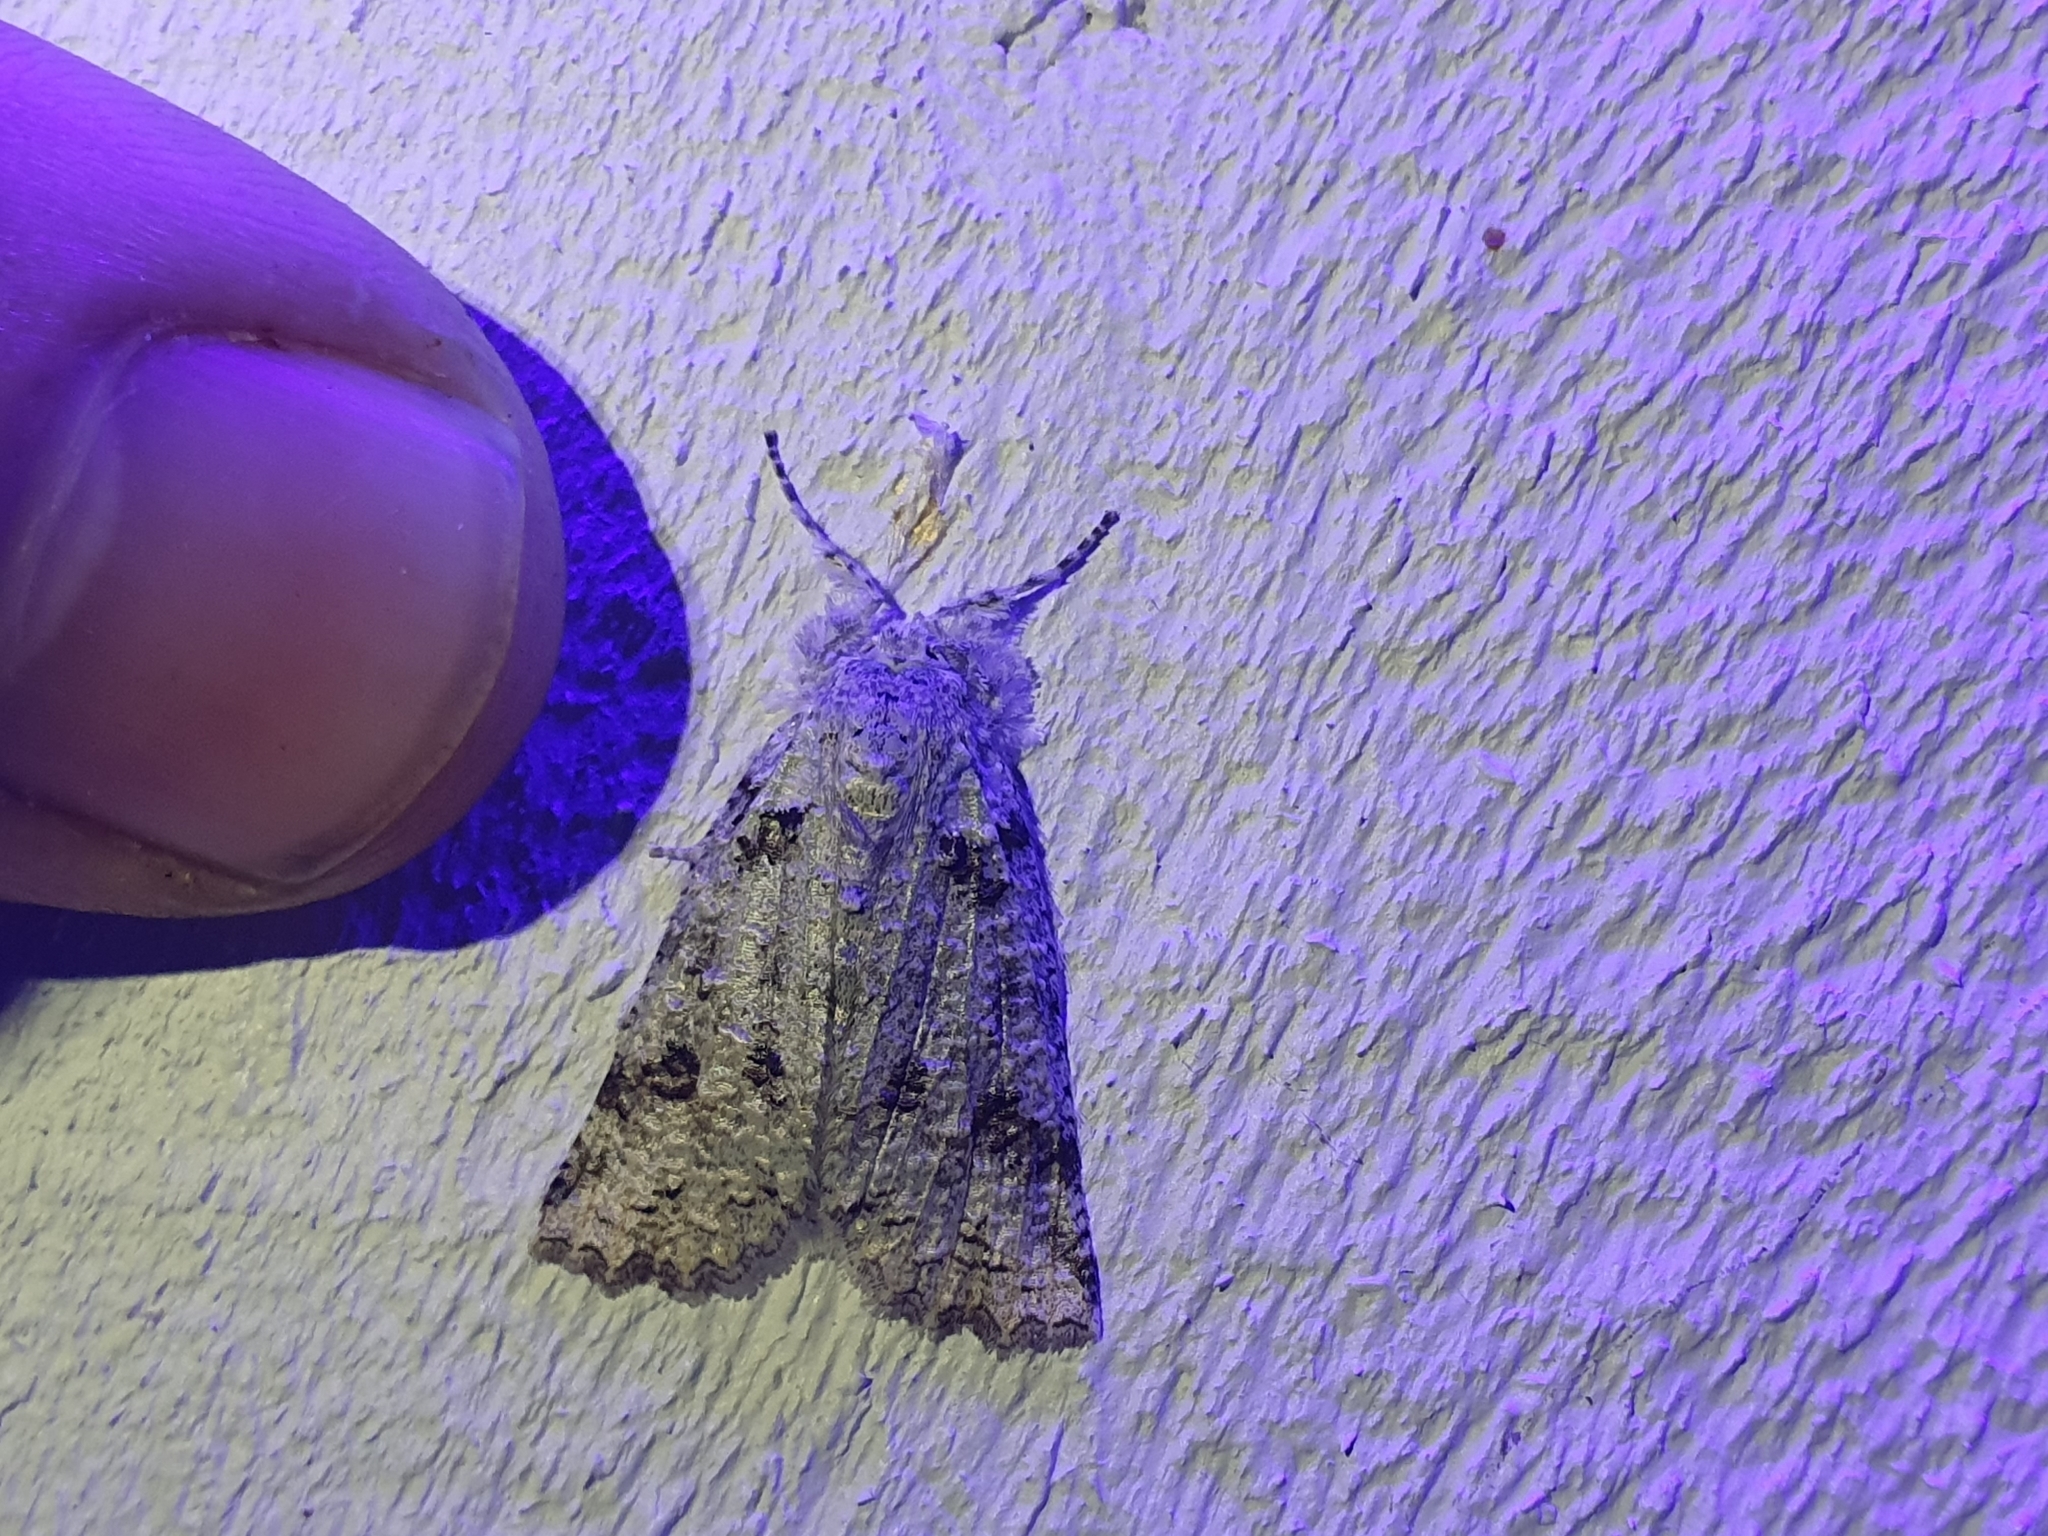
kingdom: Animalia
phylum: Arthropoda
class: Insecta
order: Lepidoptera
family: Geometridae
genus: Declana
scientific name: Declana floccosa
